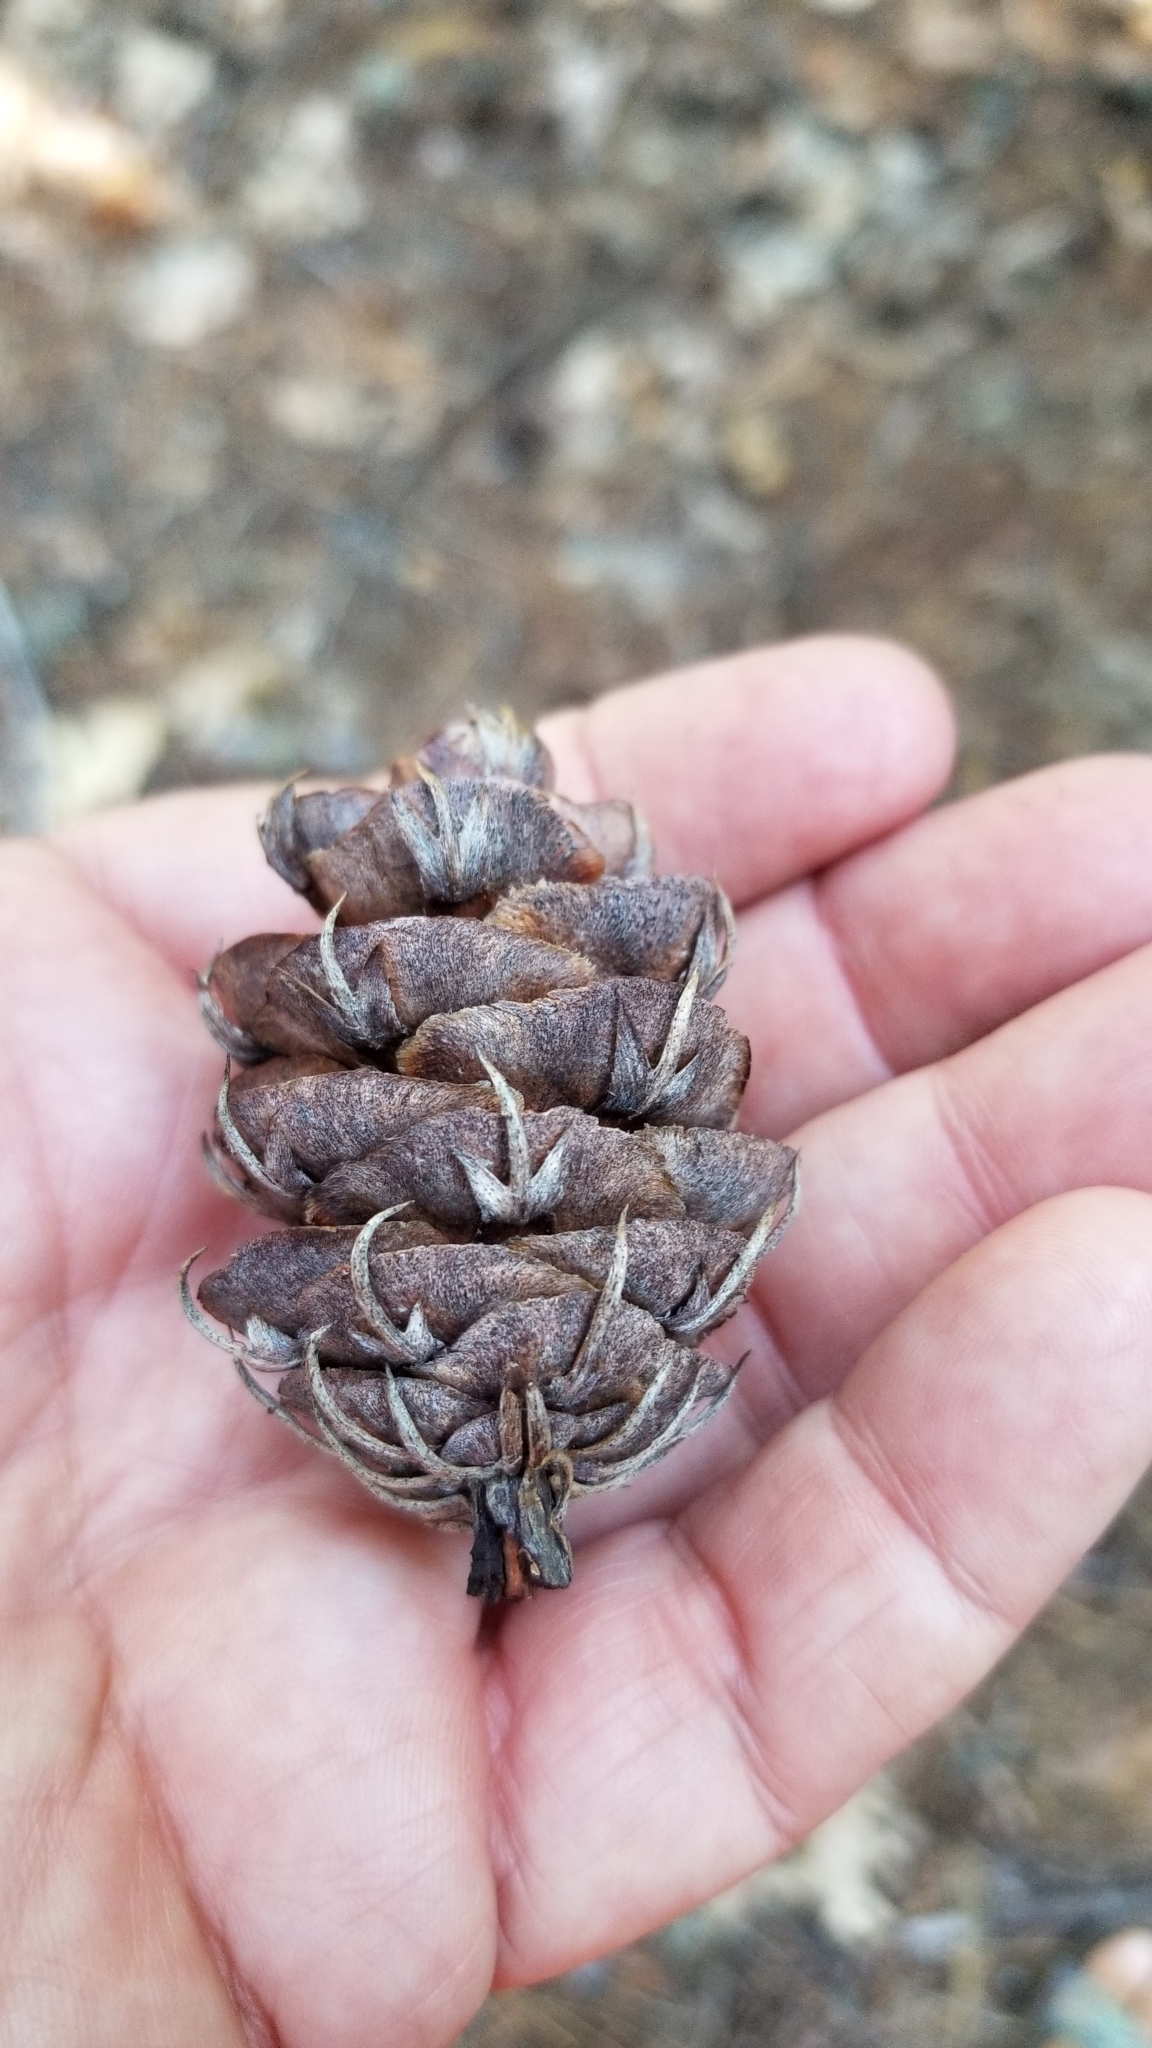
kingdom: Plantae
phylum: Tracheophyta
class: Pinopsida
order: Pinales
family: Pinaceae
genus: Pseudotsuga
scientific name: Pseudotsuga menziesii
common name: Douglas fir
